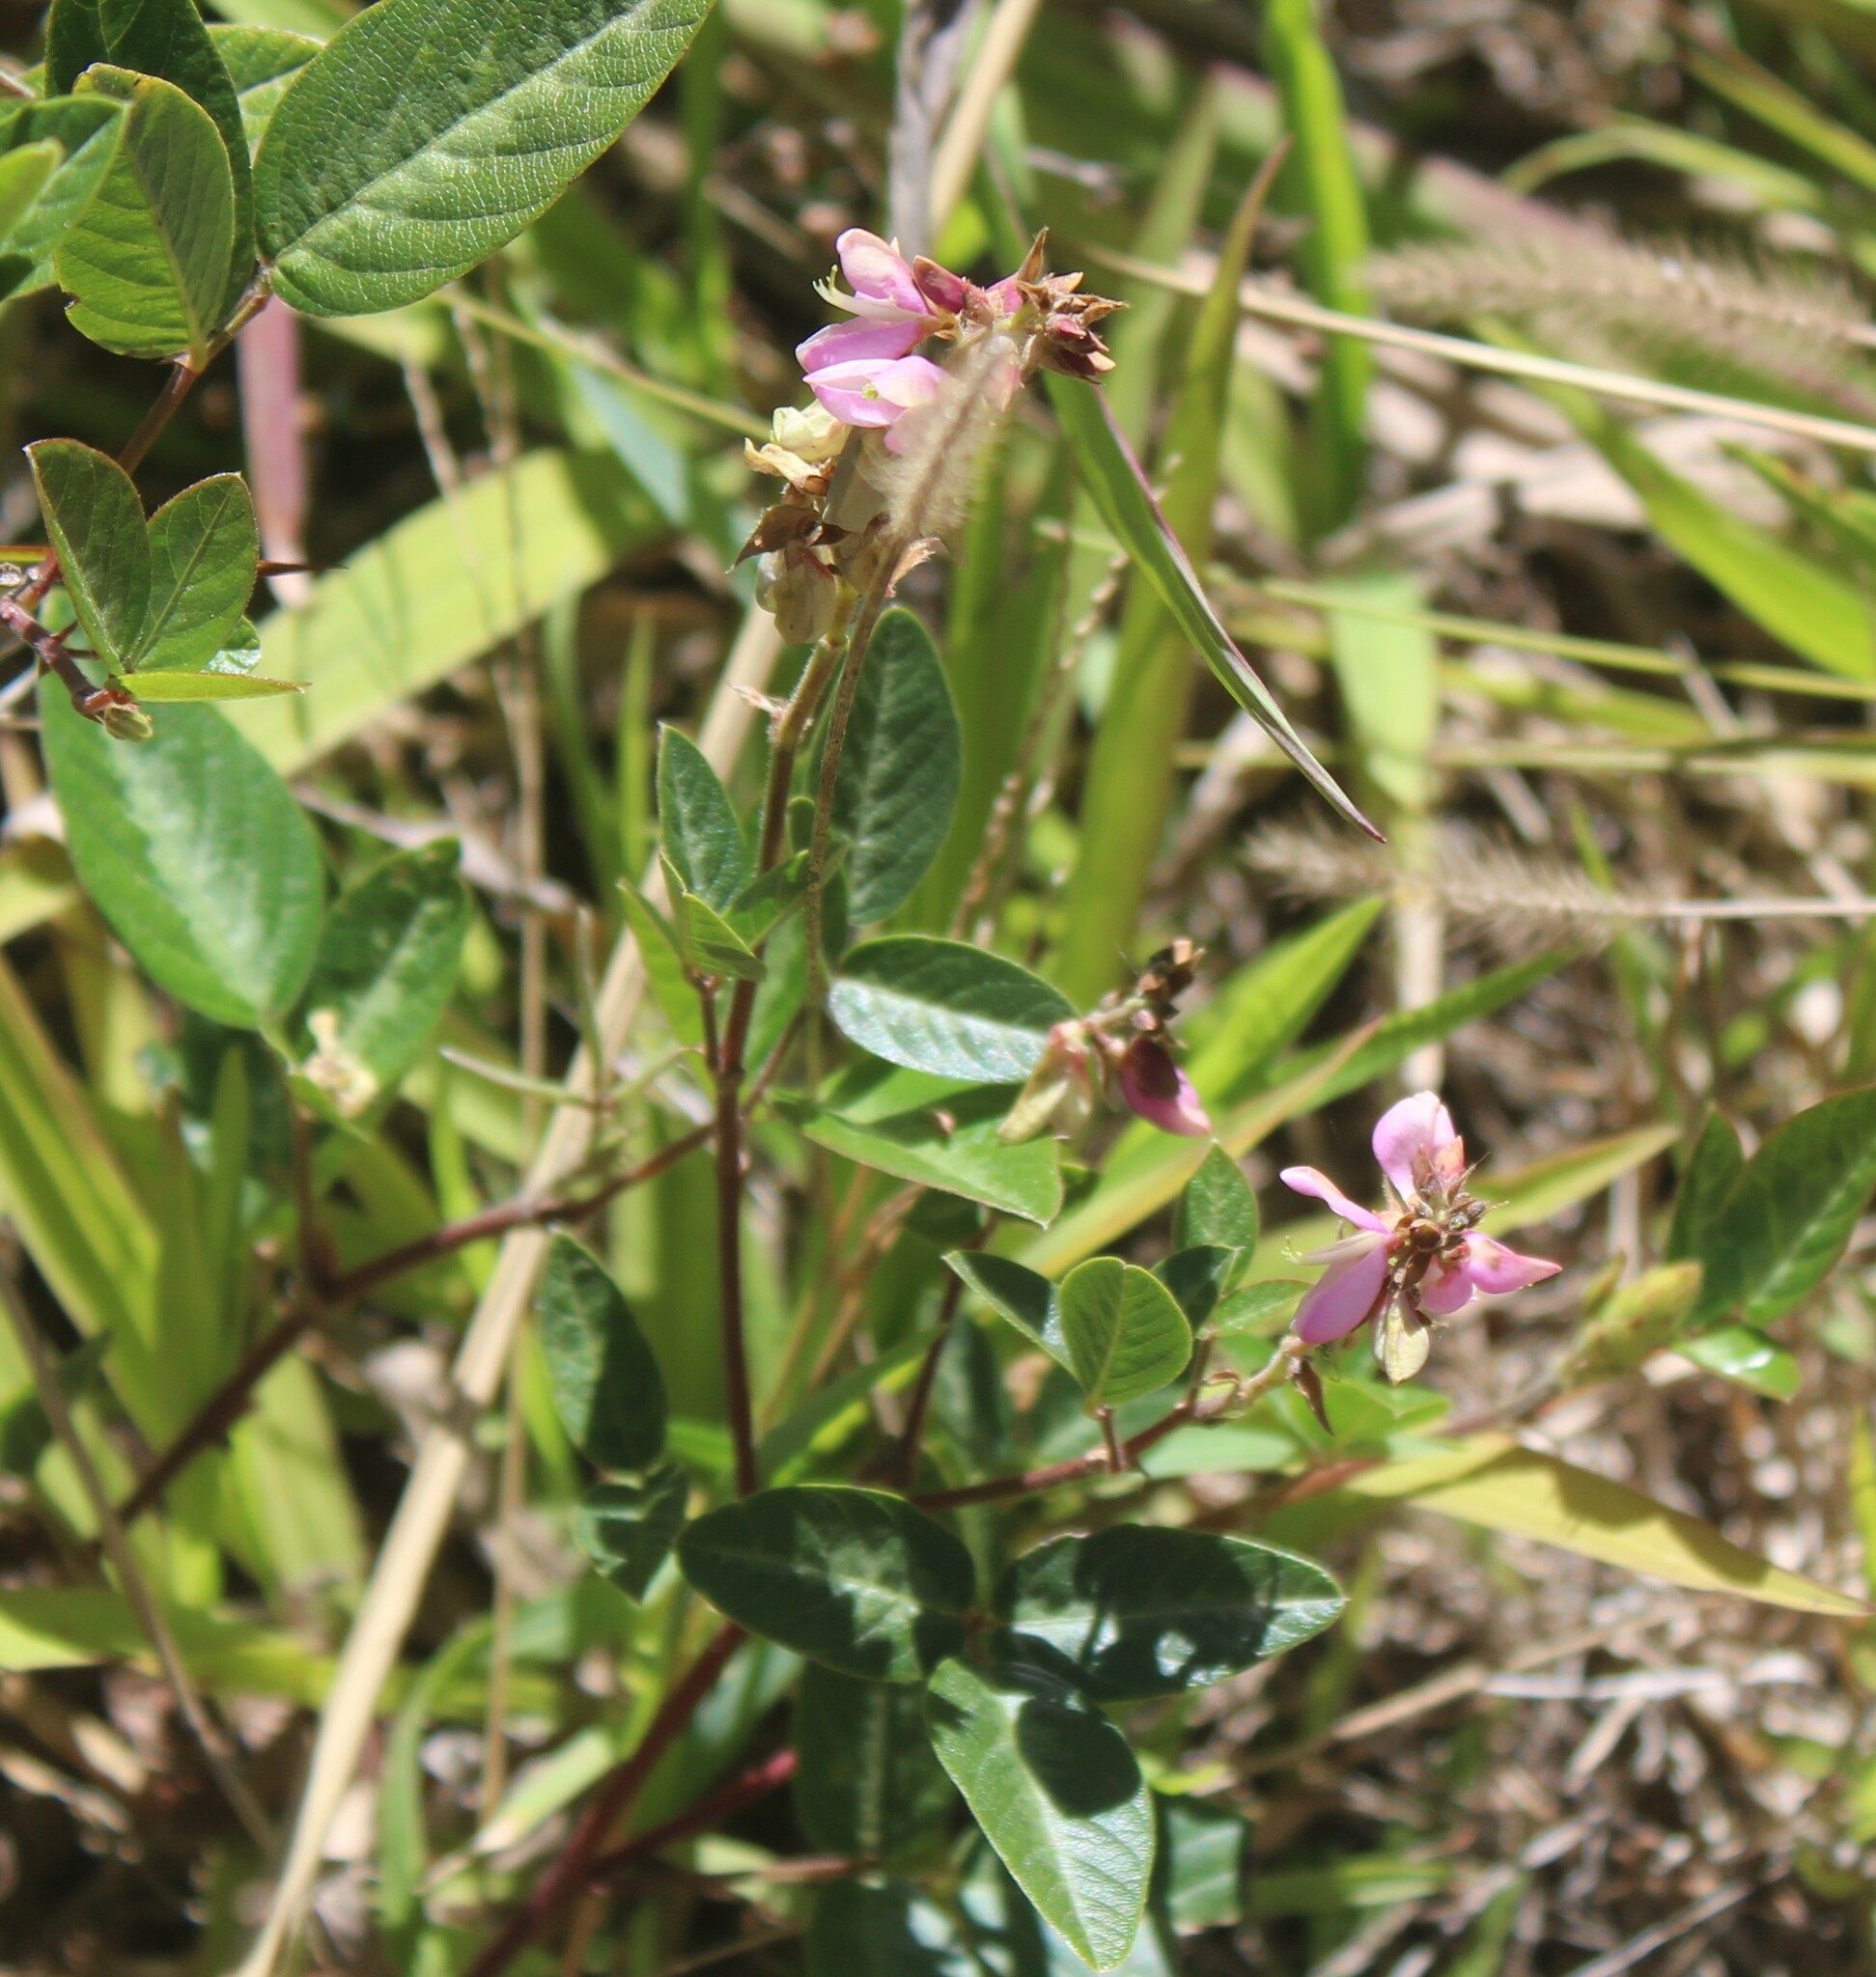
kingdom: Plantae
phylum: Tracheophyta
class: Magnoliopsida
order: Fabales
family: Fabaceae
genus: Desmodium
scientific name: Desmodium incanum
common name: Tickclover
